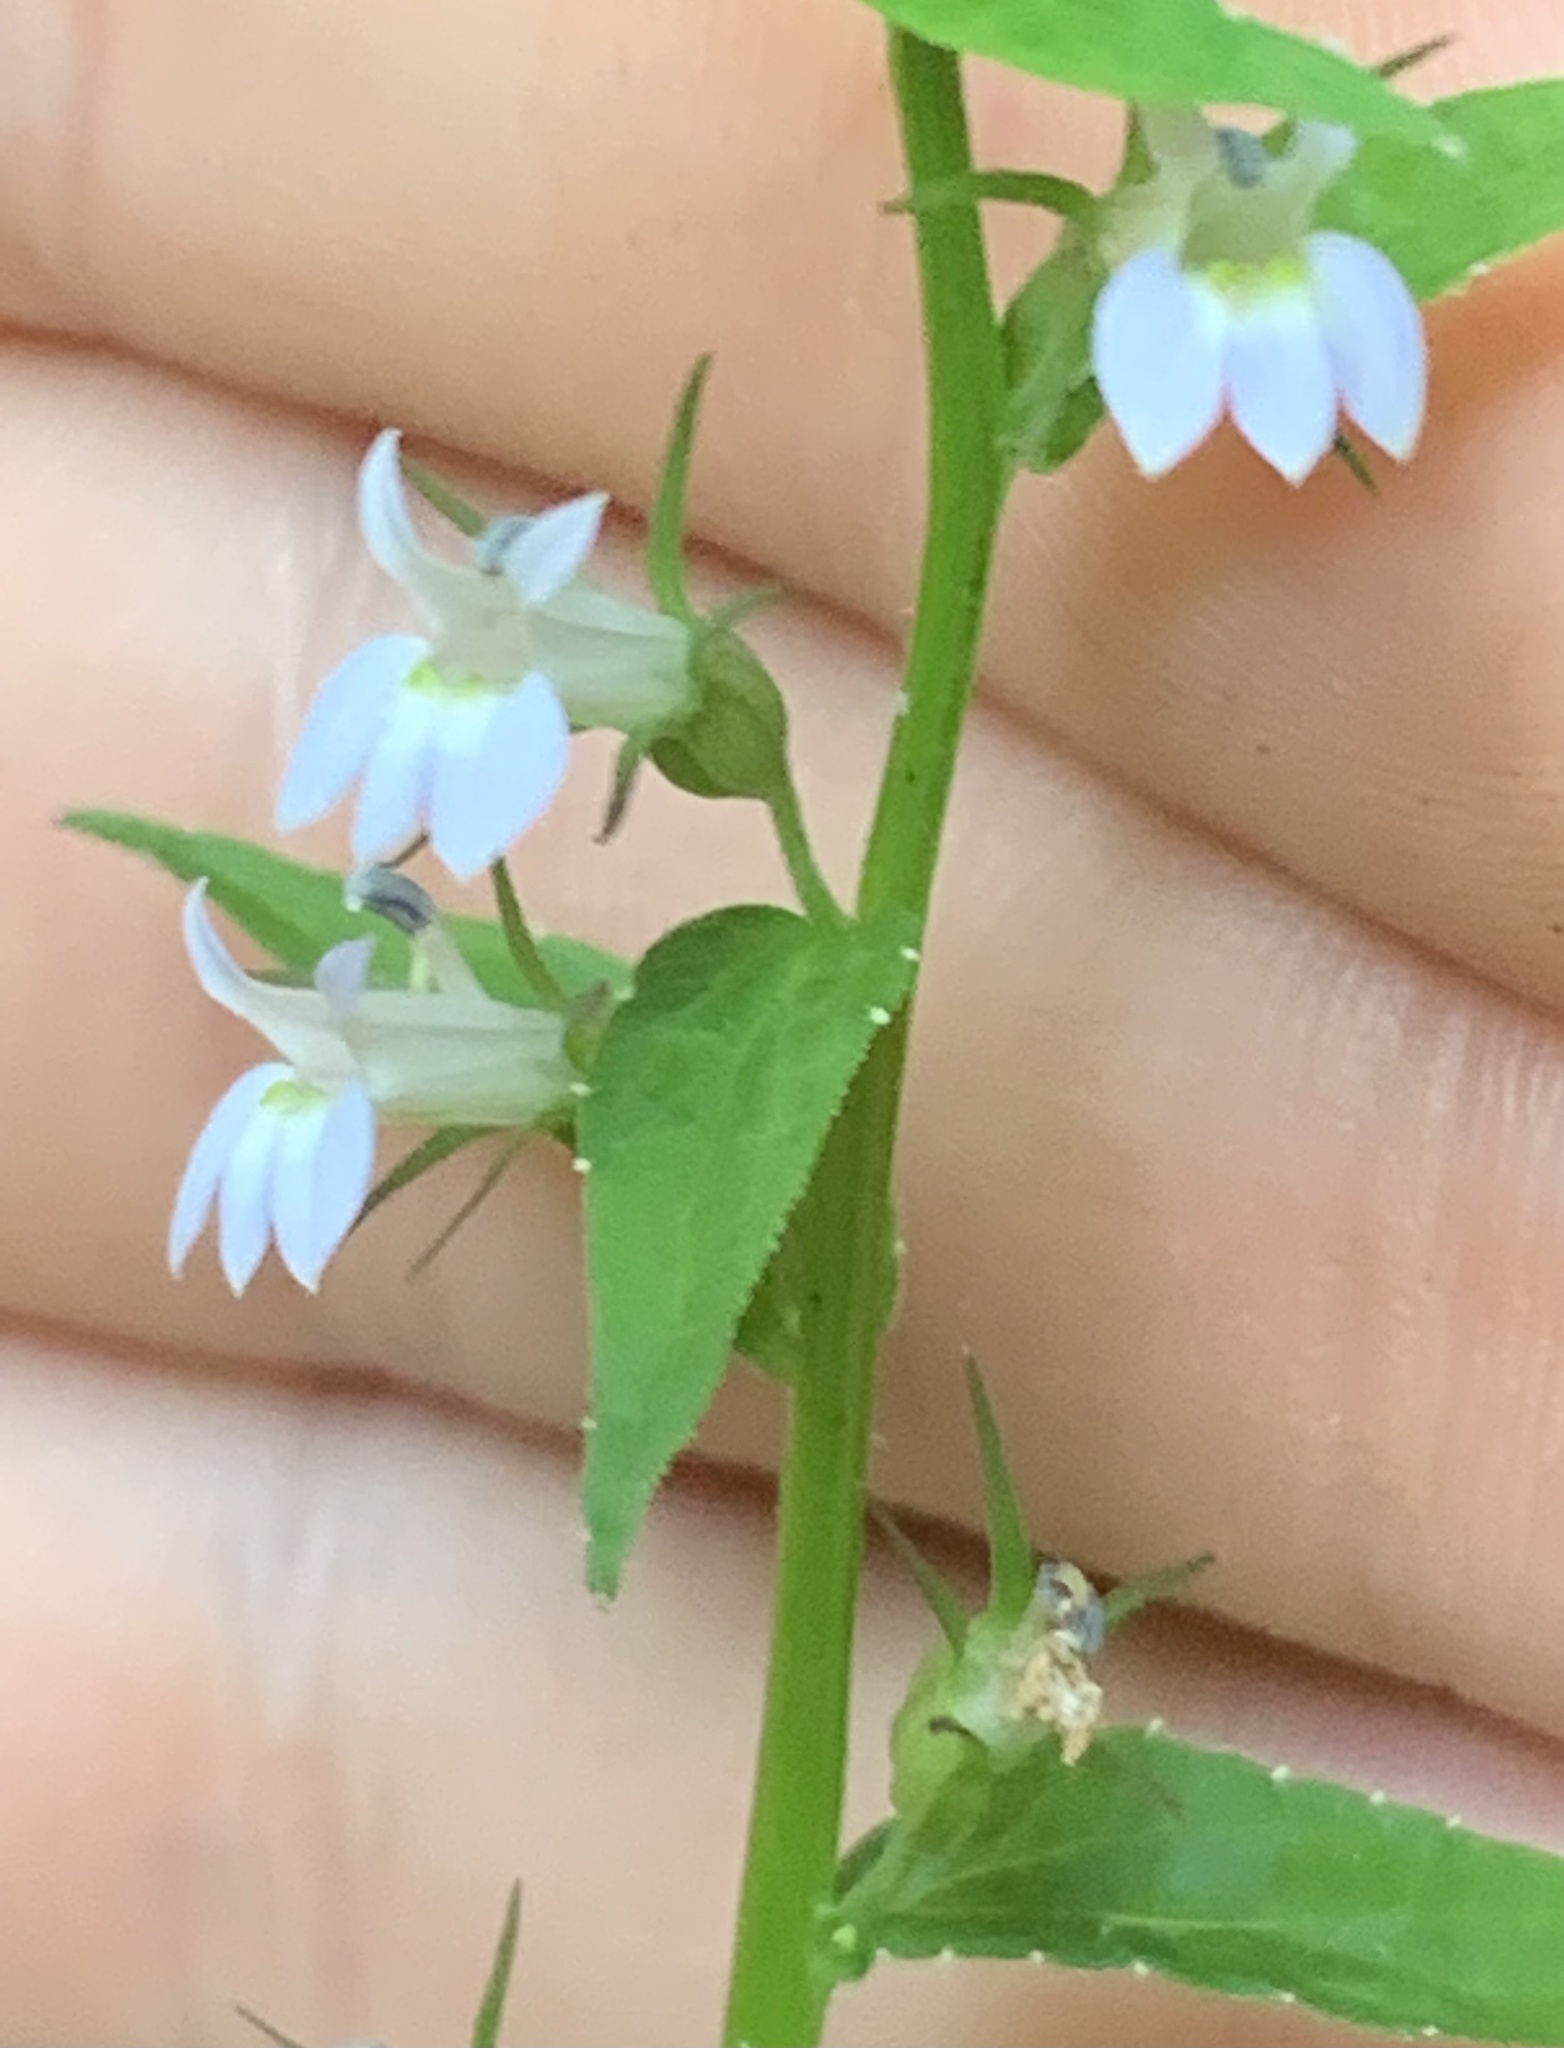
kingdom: Plantae
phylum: Tracheophyta
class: Magnoliopsida
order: Asterales
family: Campanulaceae
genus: Lobelia
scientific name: Lobelia inflata
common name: Indian tobacco
